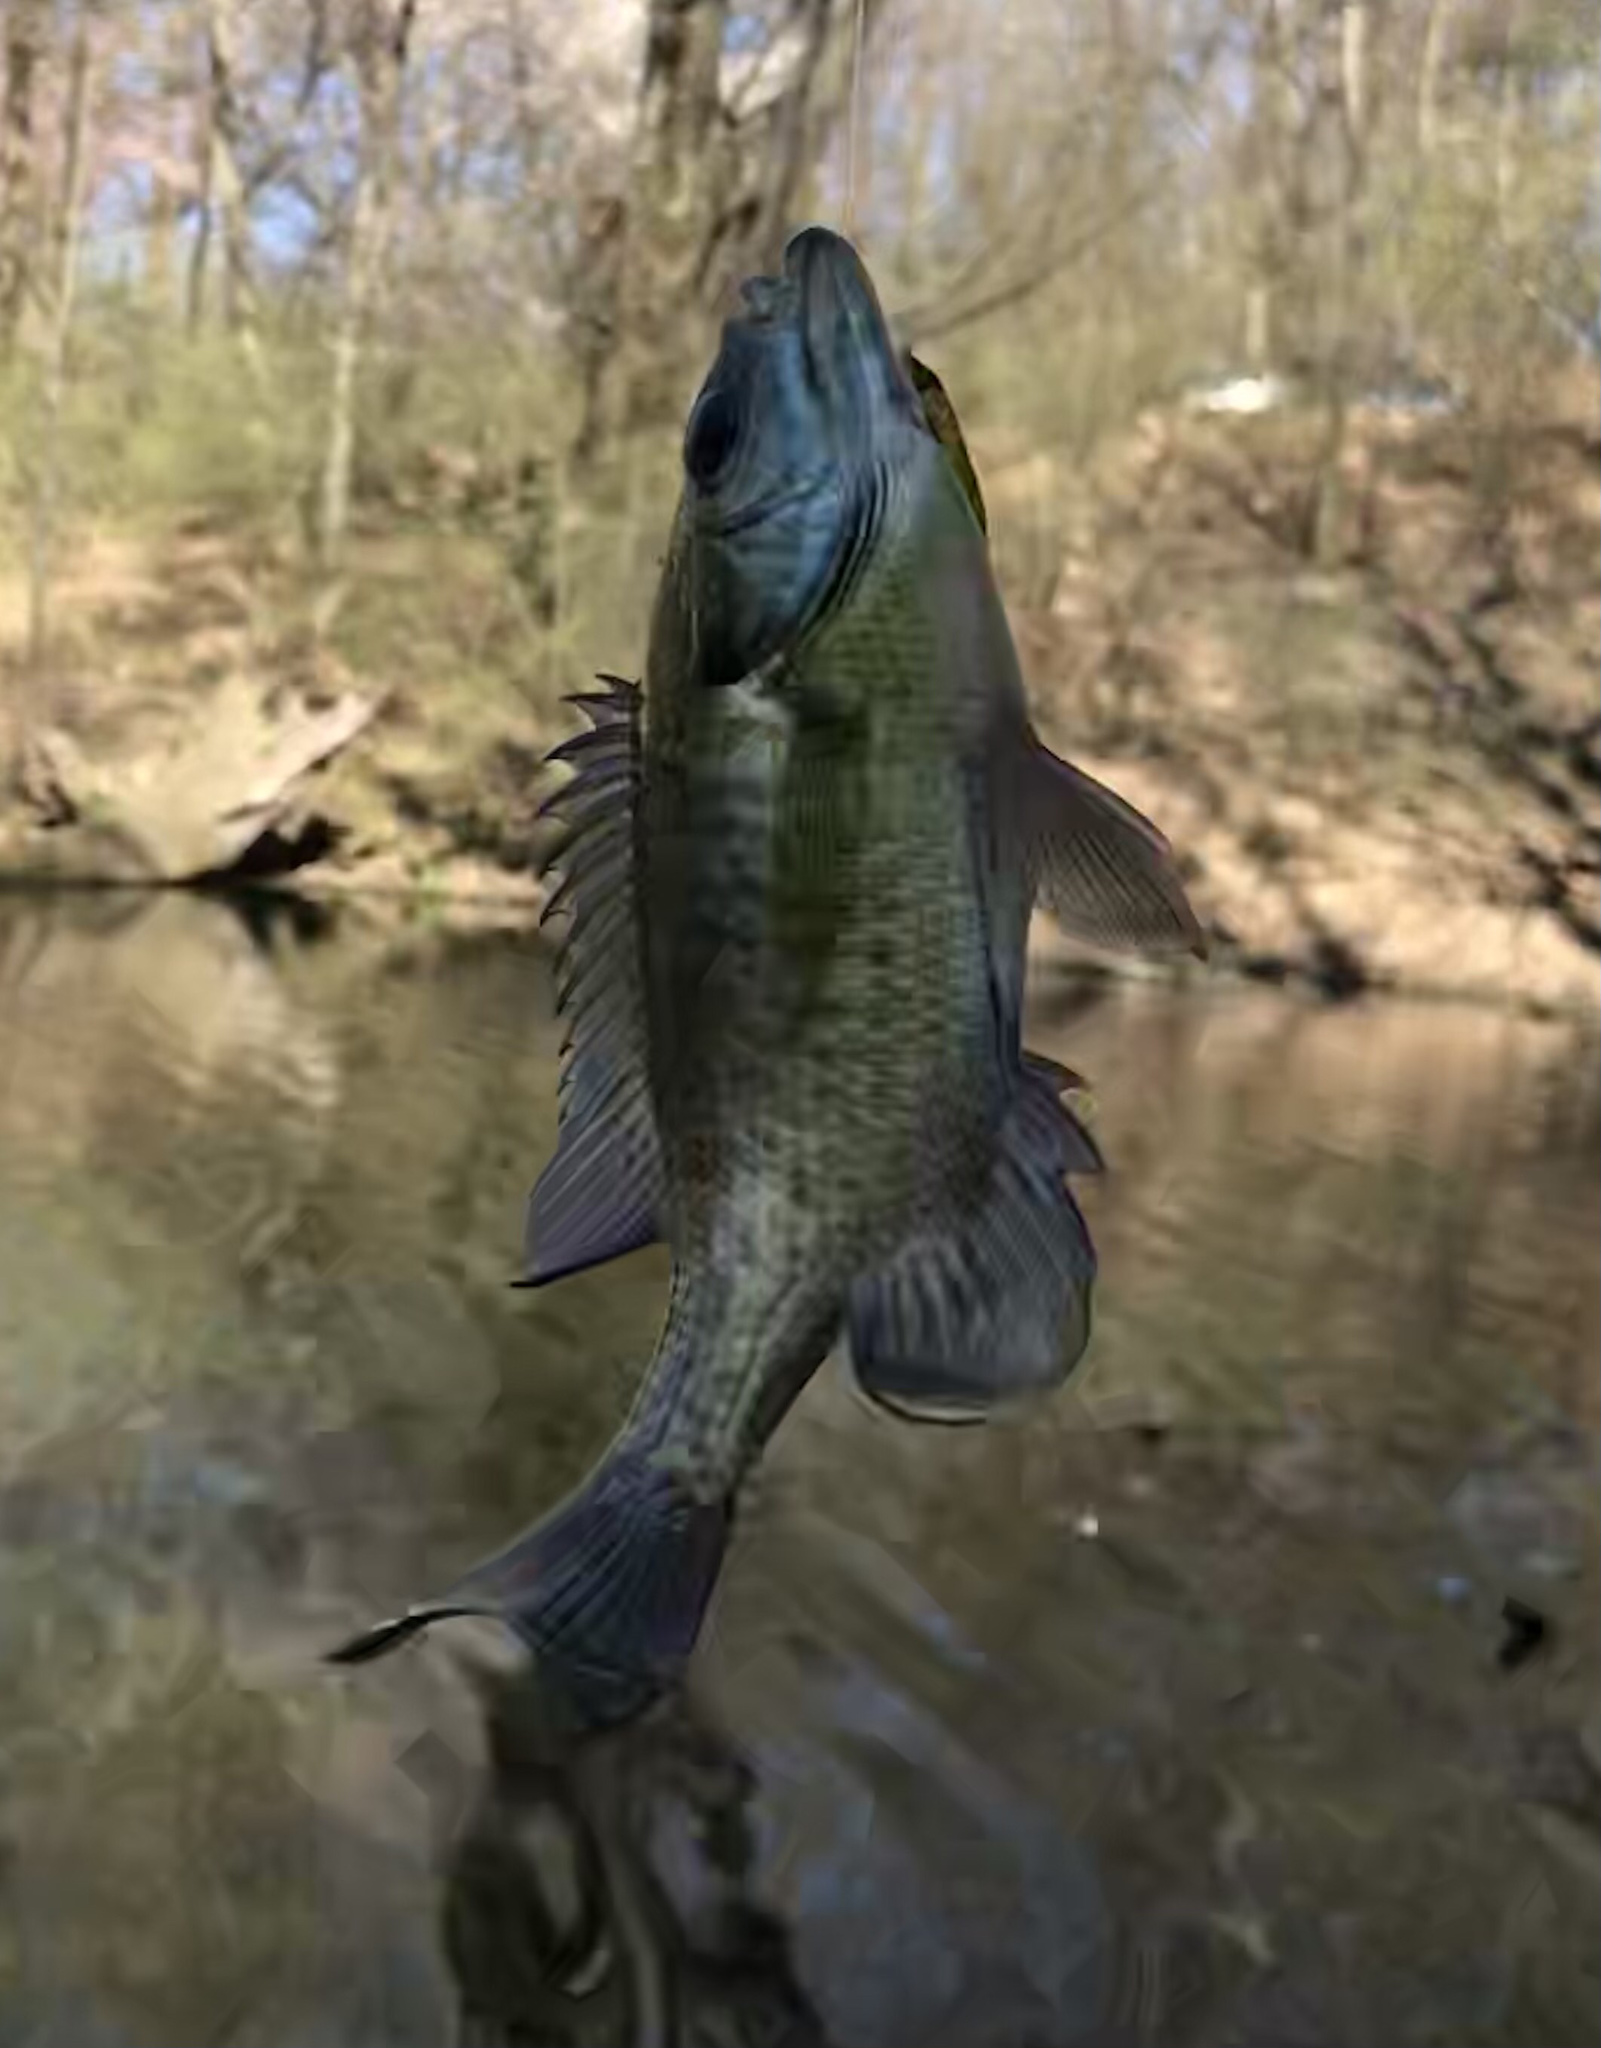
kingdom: Animalia
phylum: Chordata
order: Perciformes
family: Centrarchidae
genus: Lepomis
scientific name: Lepomis macrochirus
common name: Bluegill
